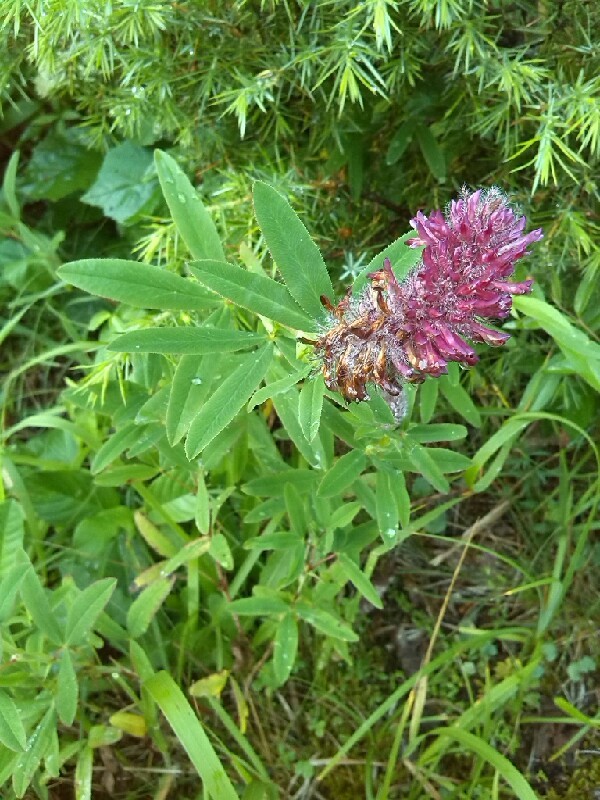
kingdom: Plantae
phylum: Tracheophyta
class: Magnoliopsida
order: Fabales
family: Fabaceae
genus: Trifolium
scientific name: Trifolium rubens
